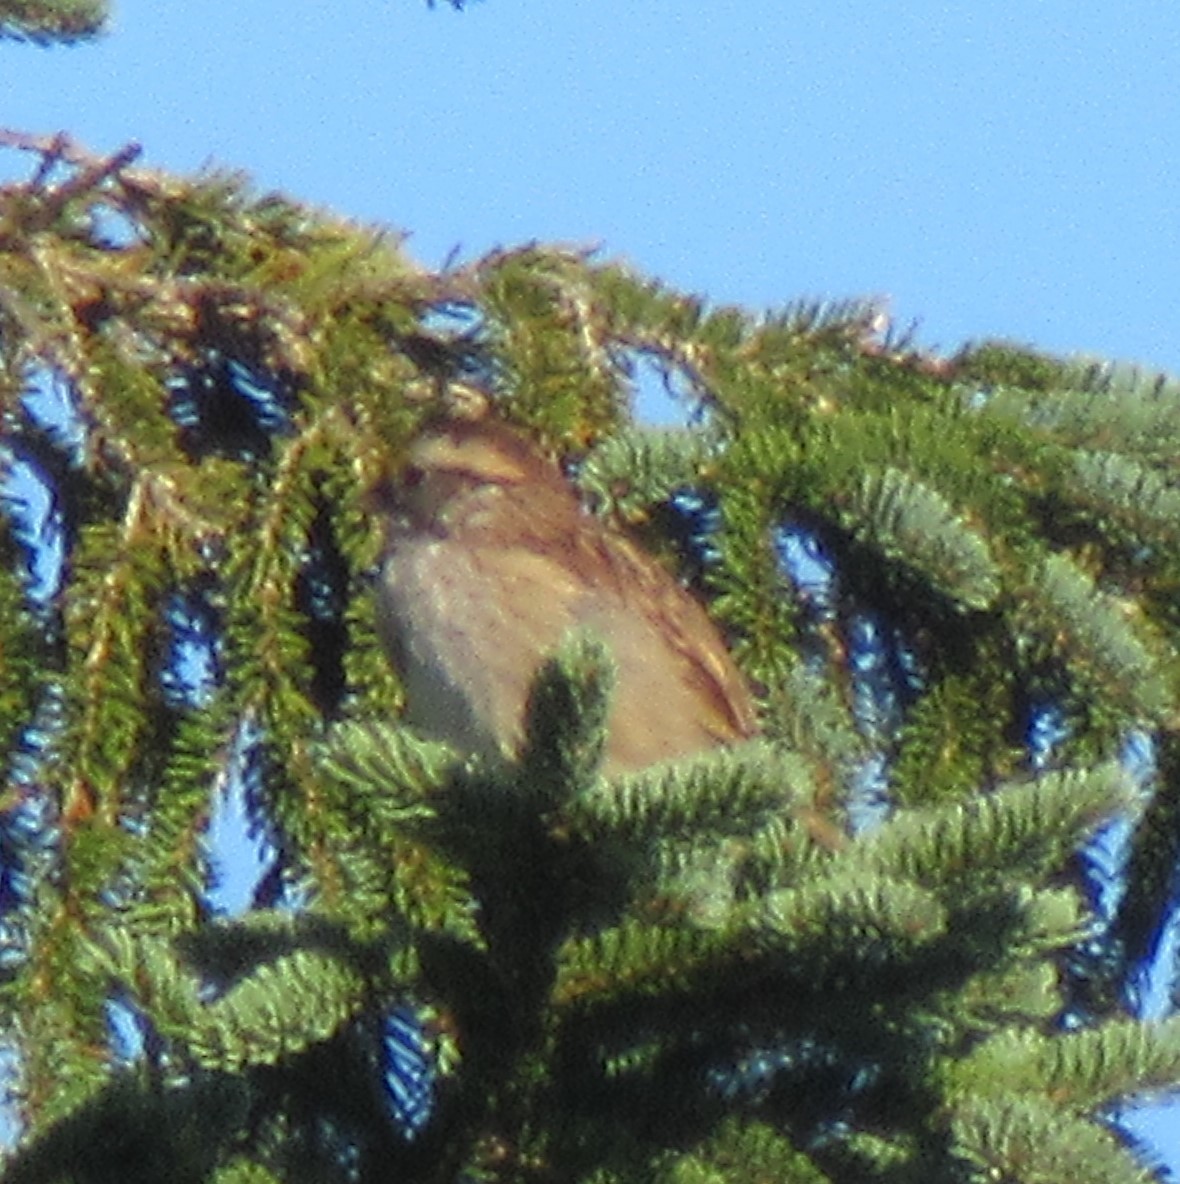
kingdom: Animalia
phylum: Chordata
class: Aves
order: Passeriformes
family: Passerellidae
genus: Zonotrichia
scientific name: Zonotrichia albicollis
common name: White-throated sparrow
